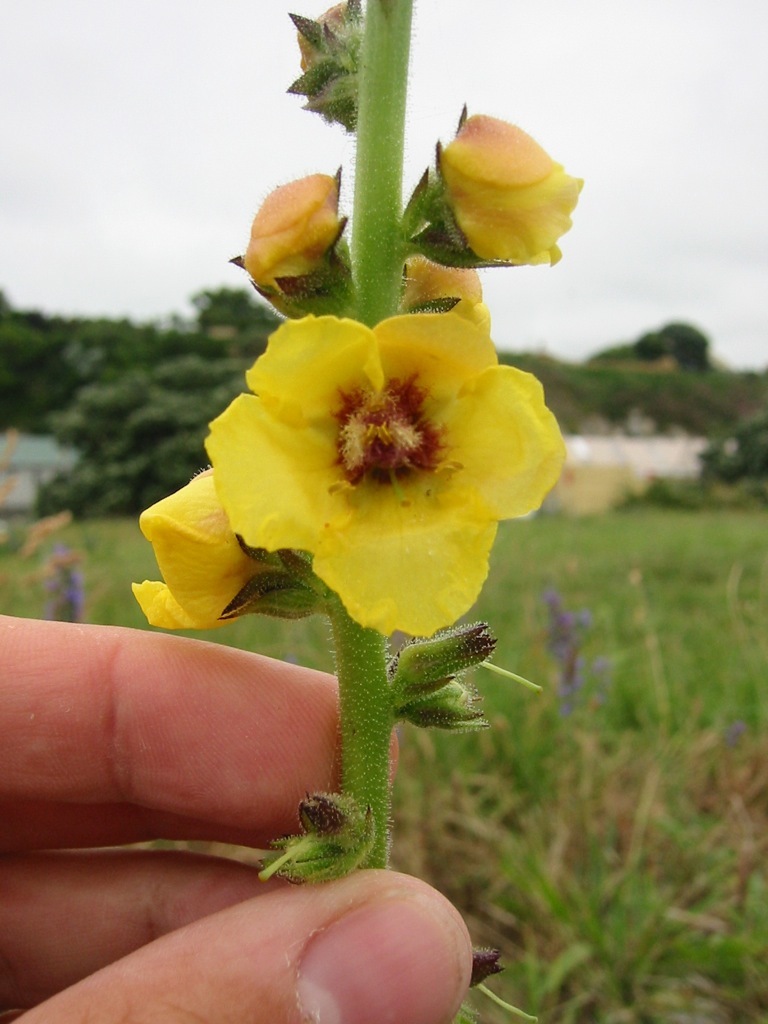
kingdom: Plantae
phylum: Tracheophyta
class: Magnoliopsida
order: Lamiales
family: Scrophulariaceae
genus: Verbascum
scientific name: Verbascum virgatum
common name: Twiggy mullein
